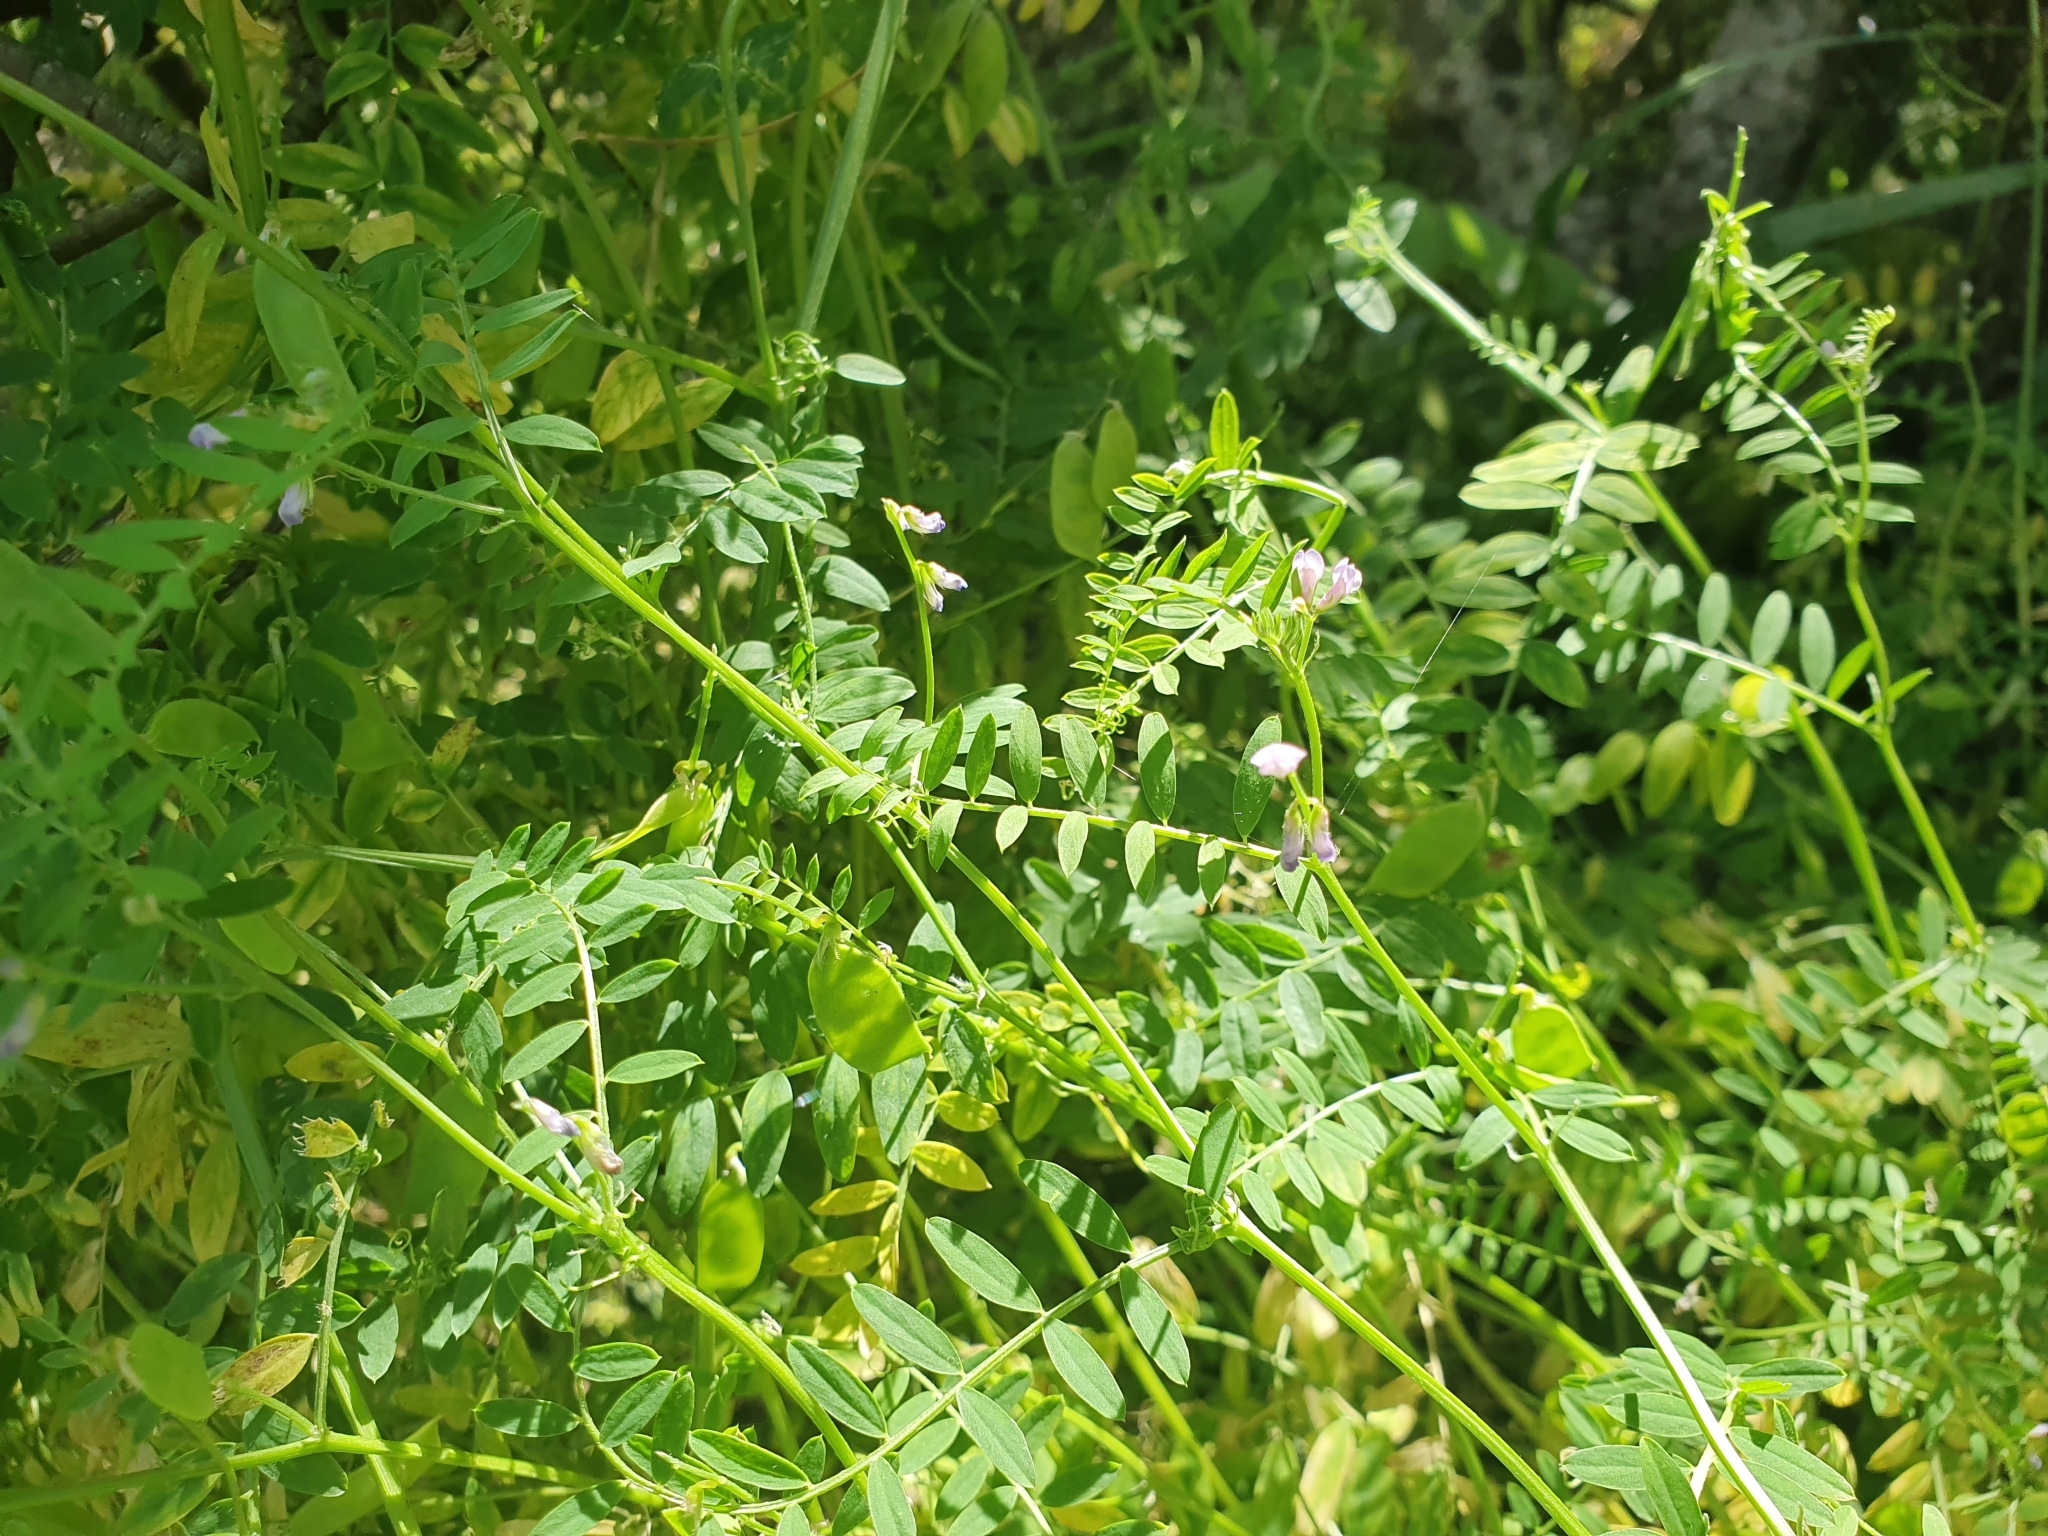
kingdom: Plantae
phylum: Tracheophyta
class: Magnoliopsida
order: Fabales
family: Fabaceae
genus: Vicia
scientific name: Vicia disperma
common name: European vetch
